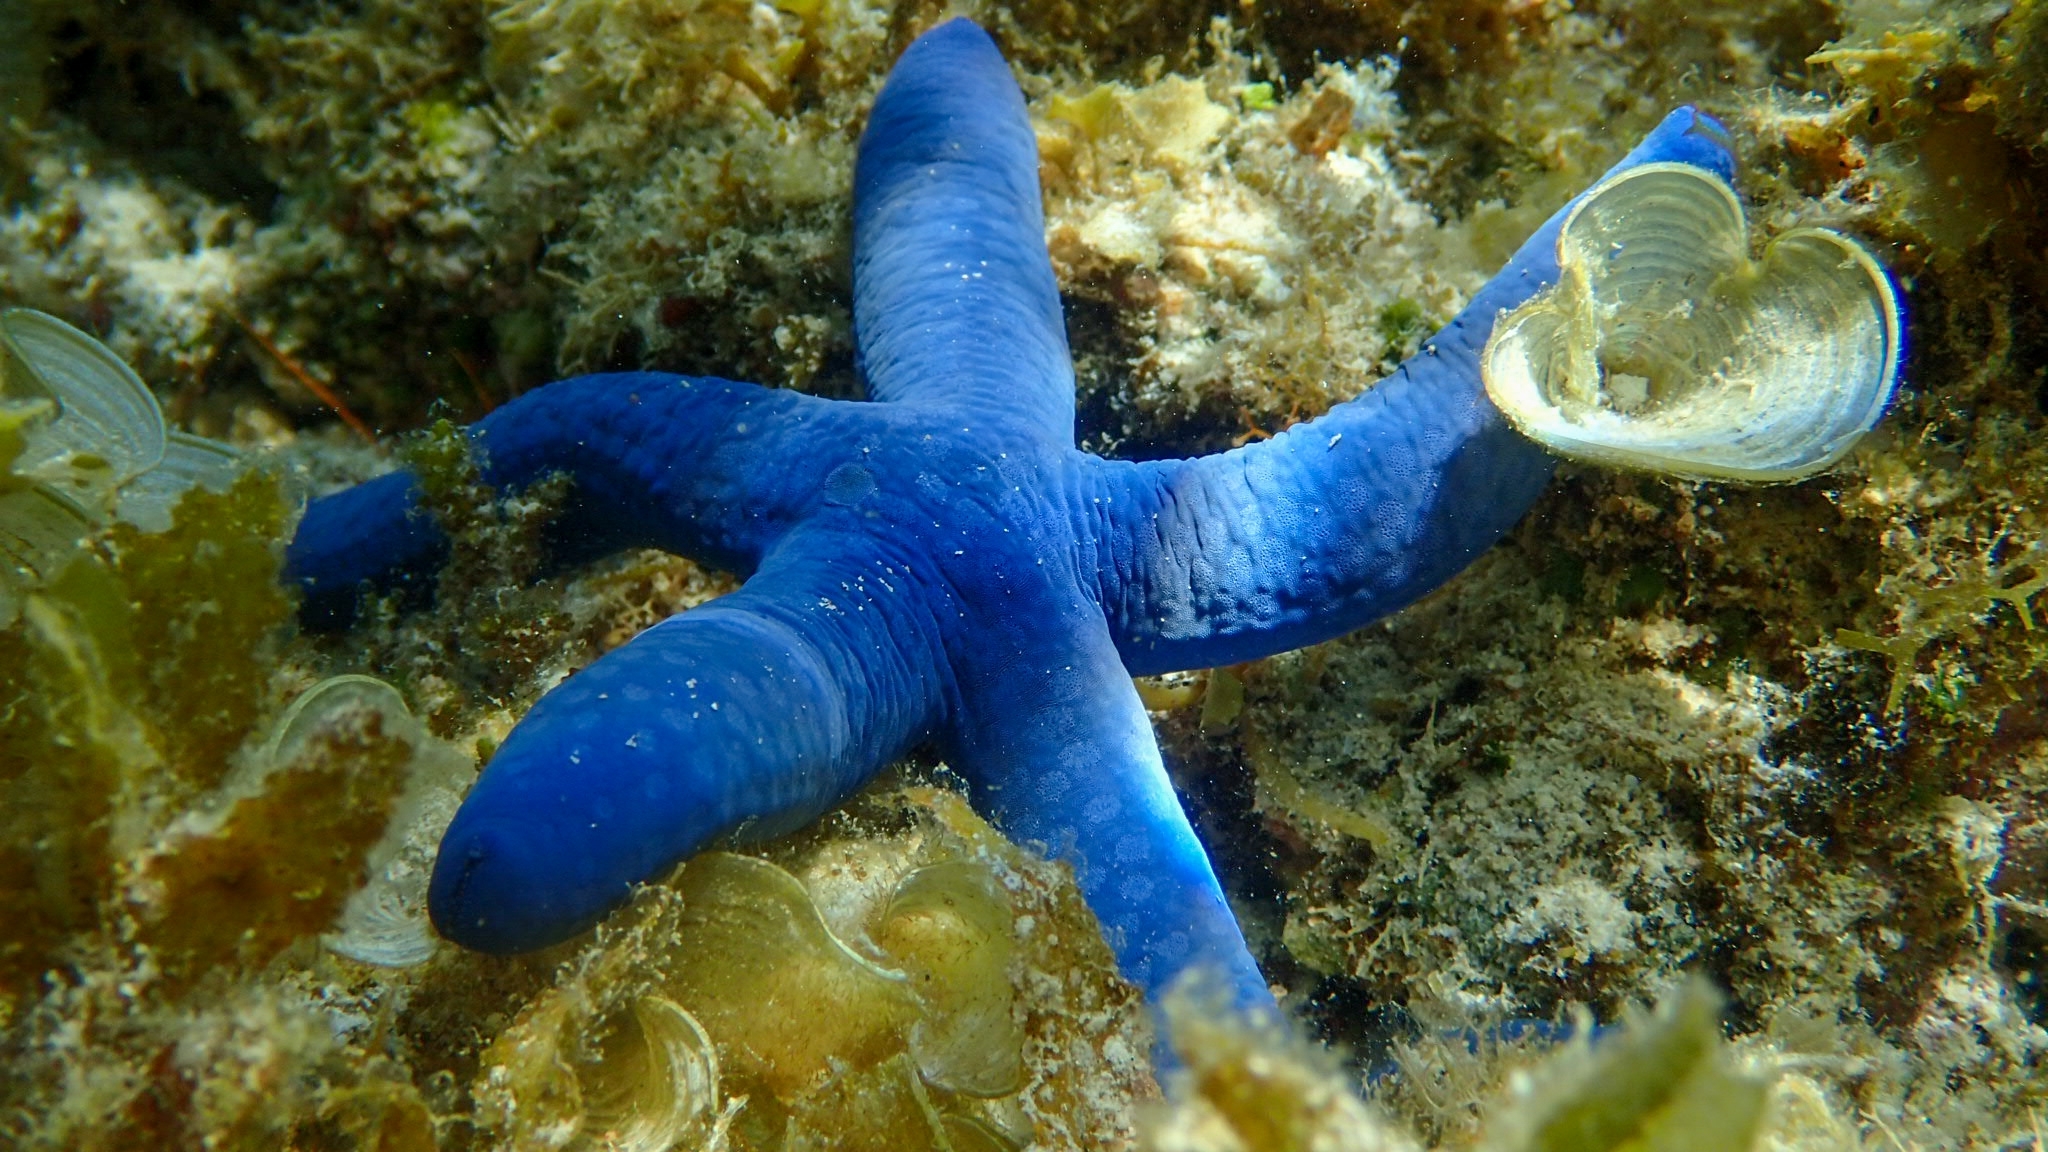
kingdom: Animalia
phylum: Echinodermata
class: Asteroidea
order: Valvatida
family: Ophidiasteridae
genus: Linckia
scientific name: Linckia laevigata
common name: Azure sea star
